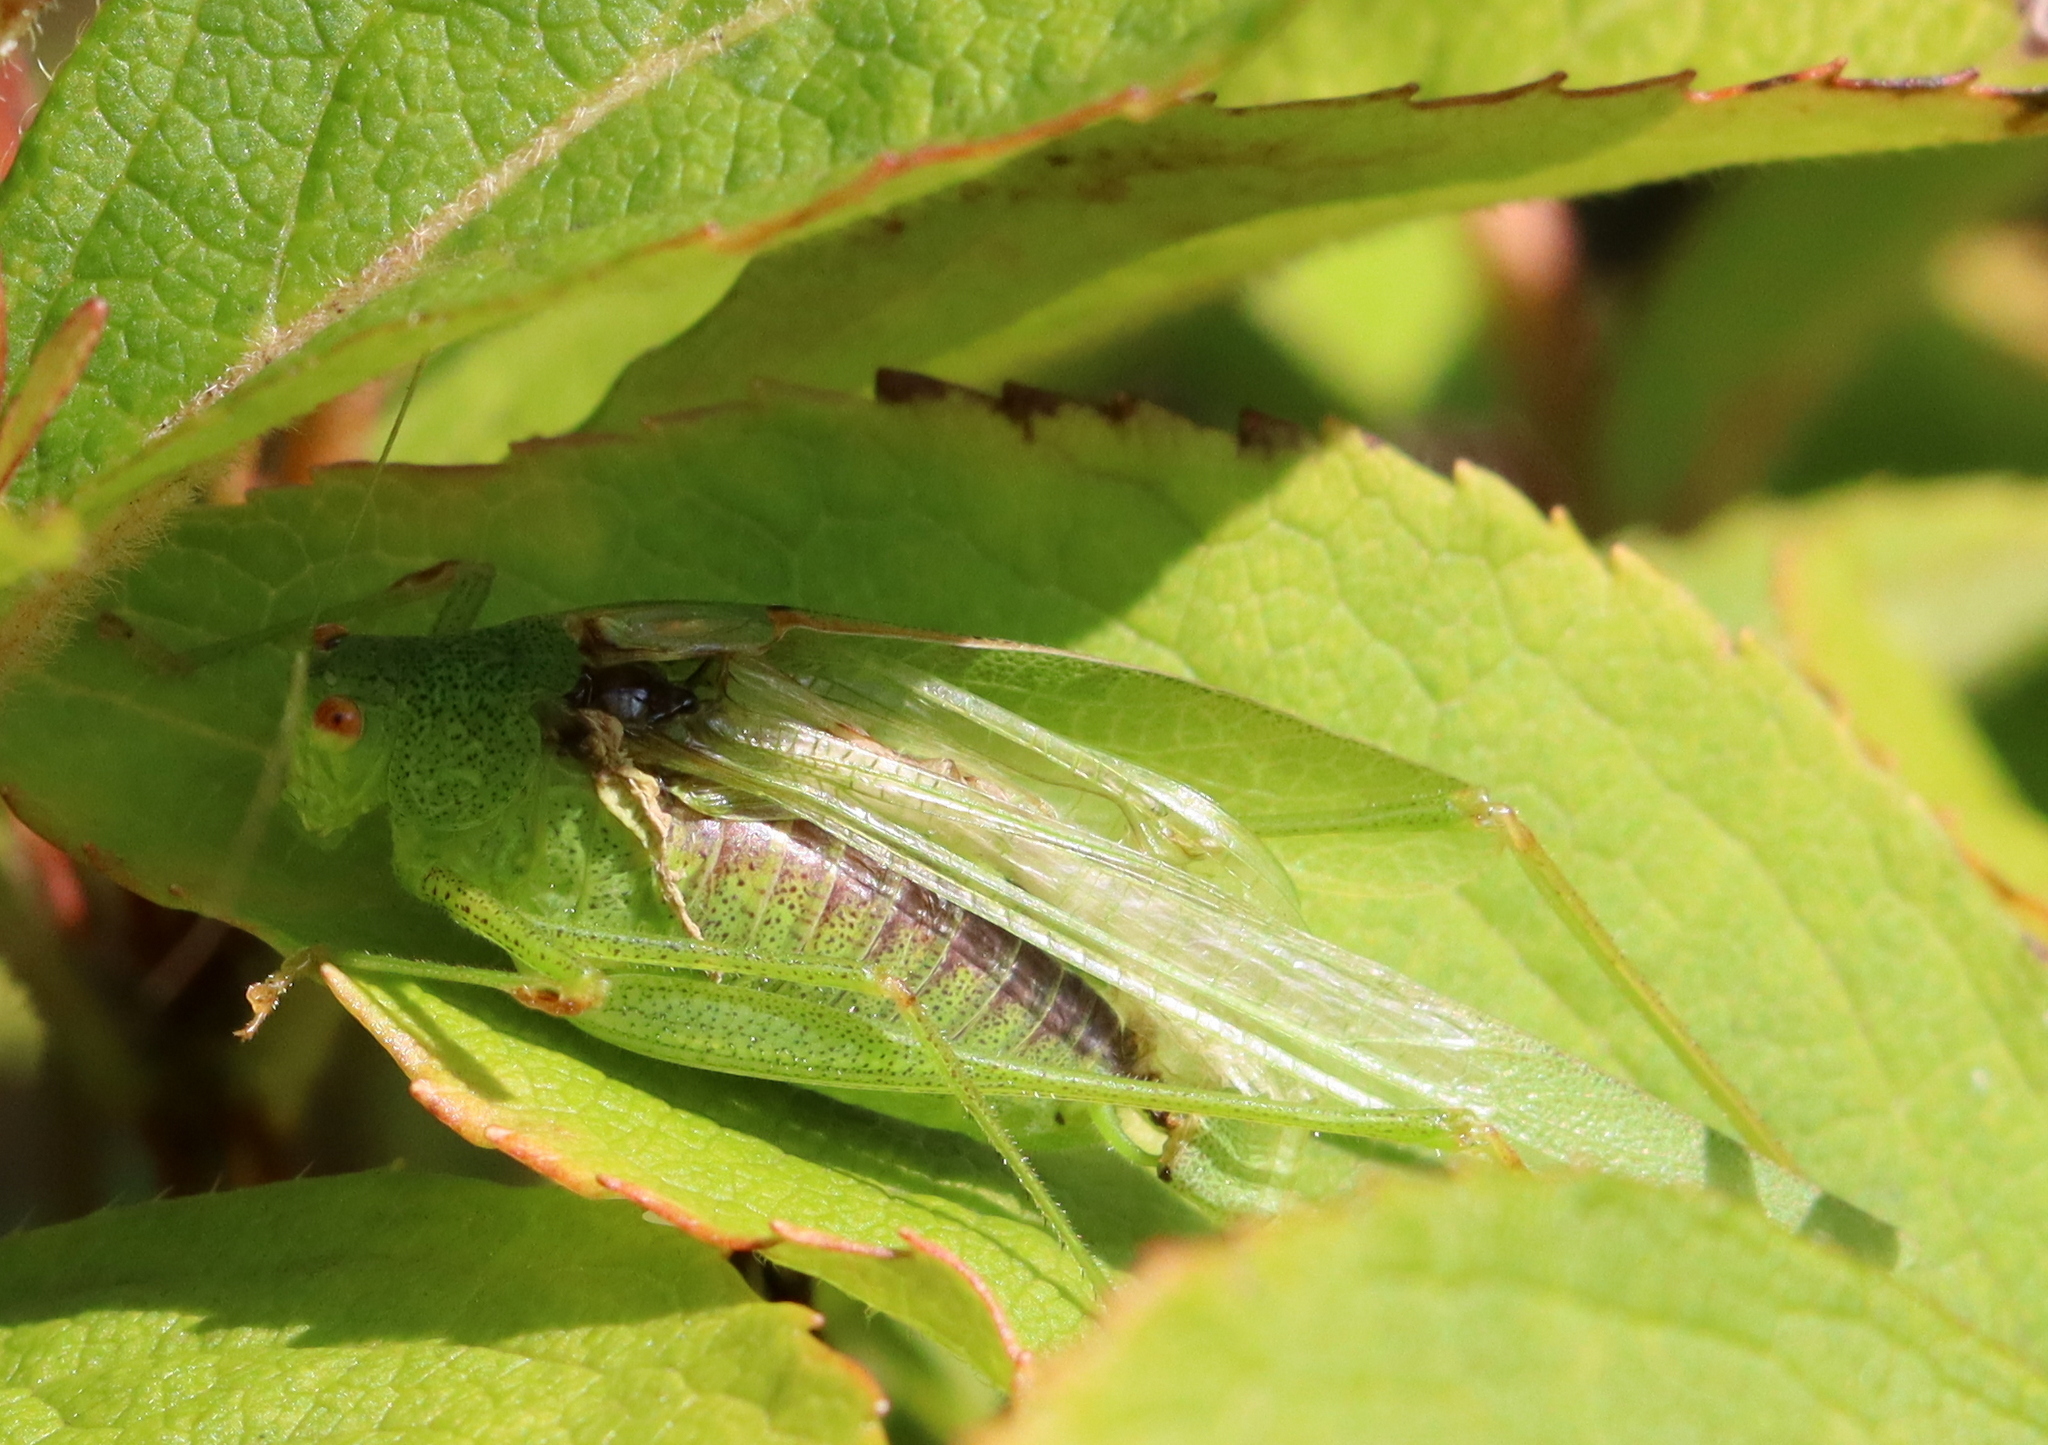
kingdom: Animalia
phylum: Arthropoda
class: Insecta
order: Orthoptera
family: Tettigoniidae
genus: Phaneroptera
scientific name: Phaneroptera nana
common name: Southern sickle bush-cricket
